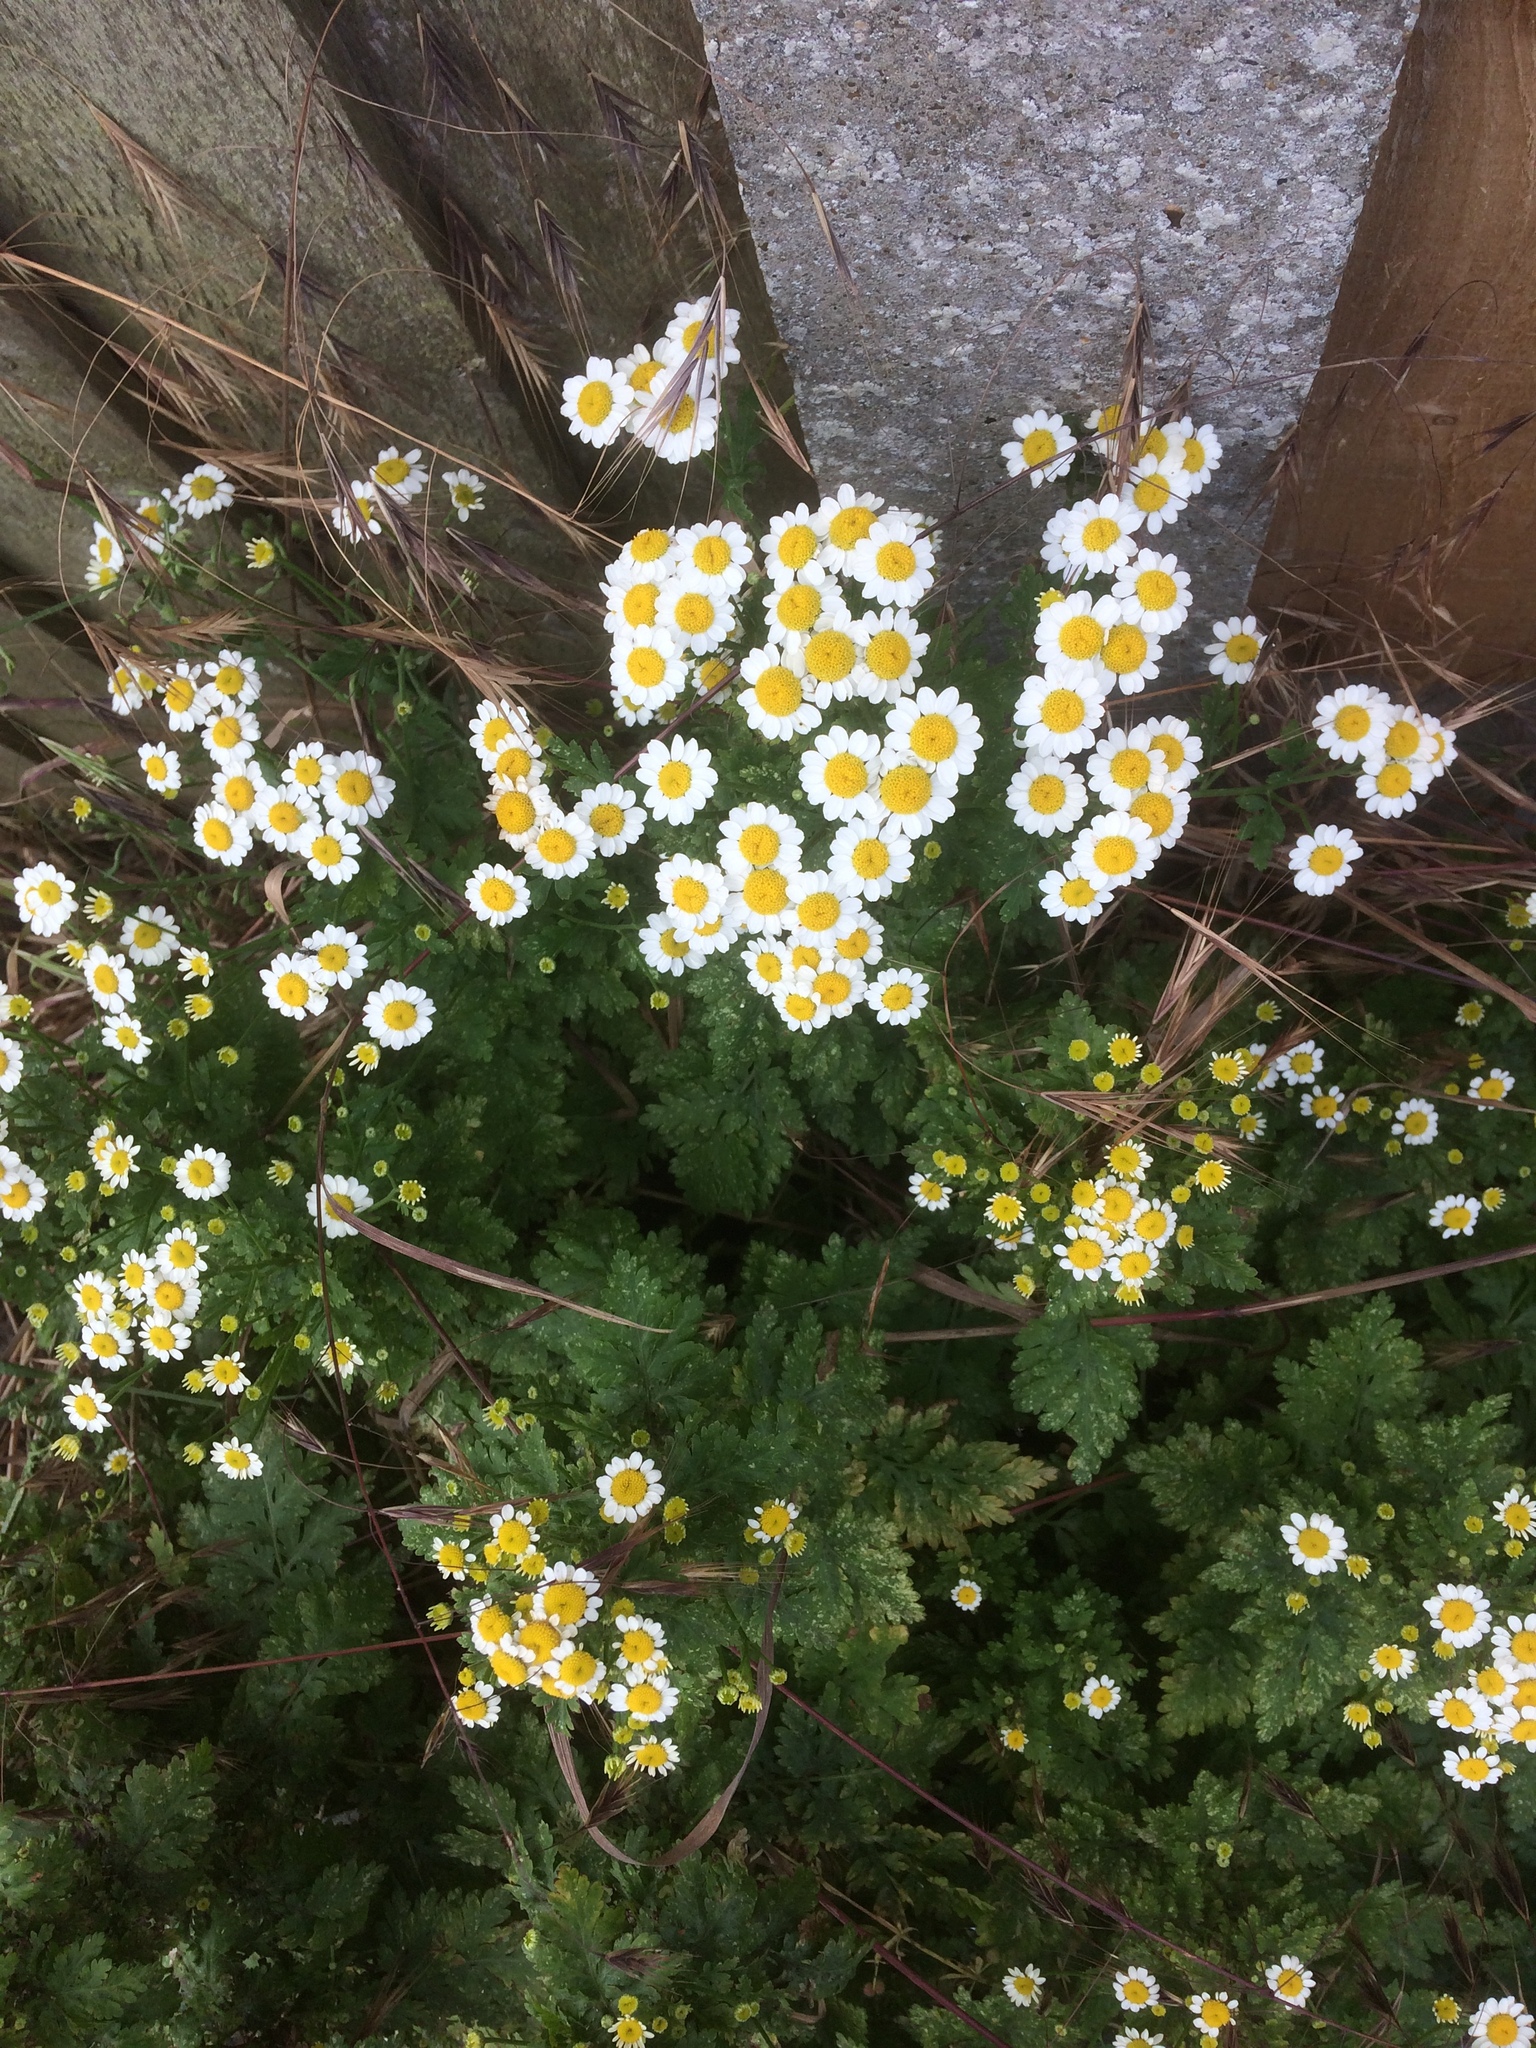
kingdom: Plantae
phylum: Tracheophyta
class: Magnoliopsida
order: Asterales
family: Asteraceae
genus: Tanacetum
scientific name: Tanacetum parthenium
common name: Feverfew
